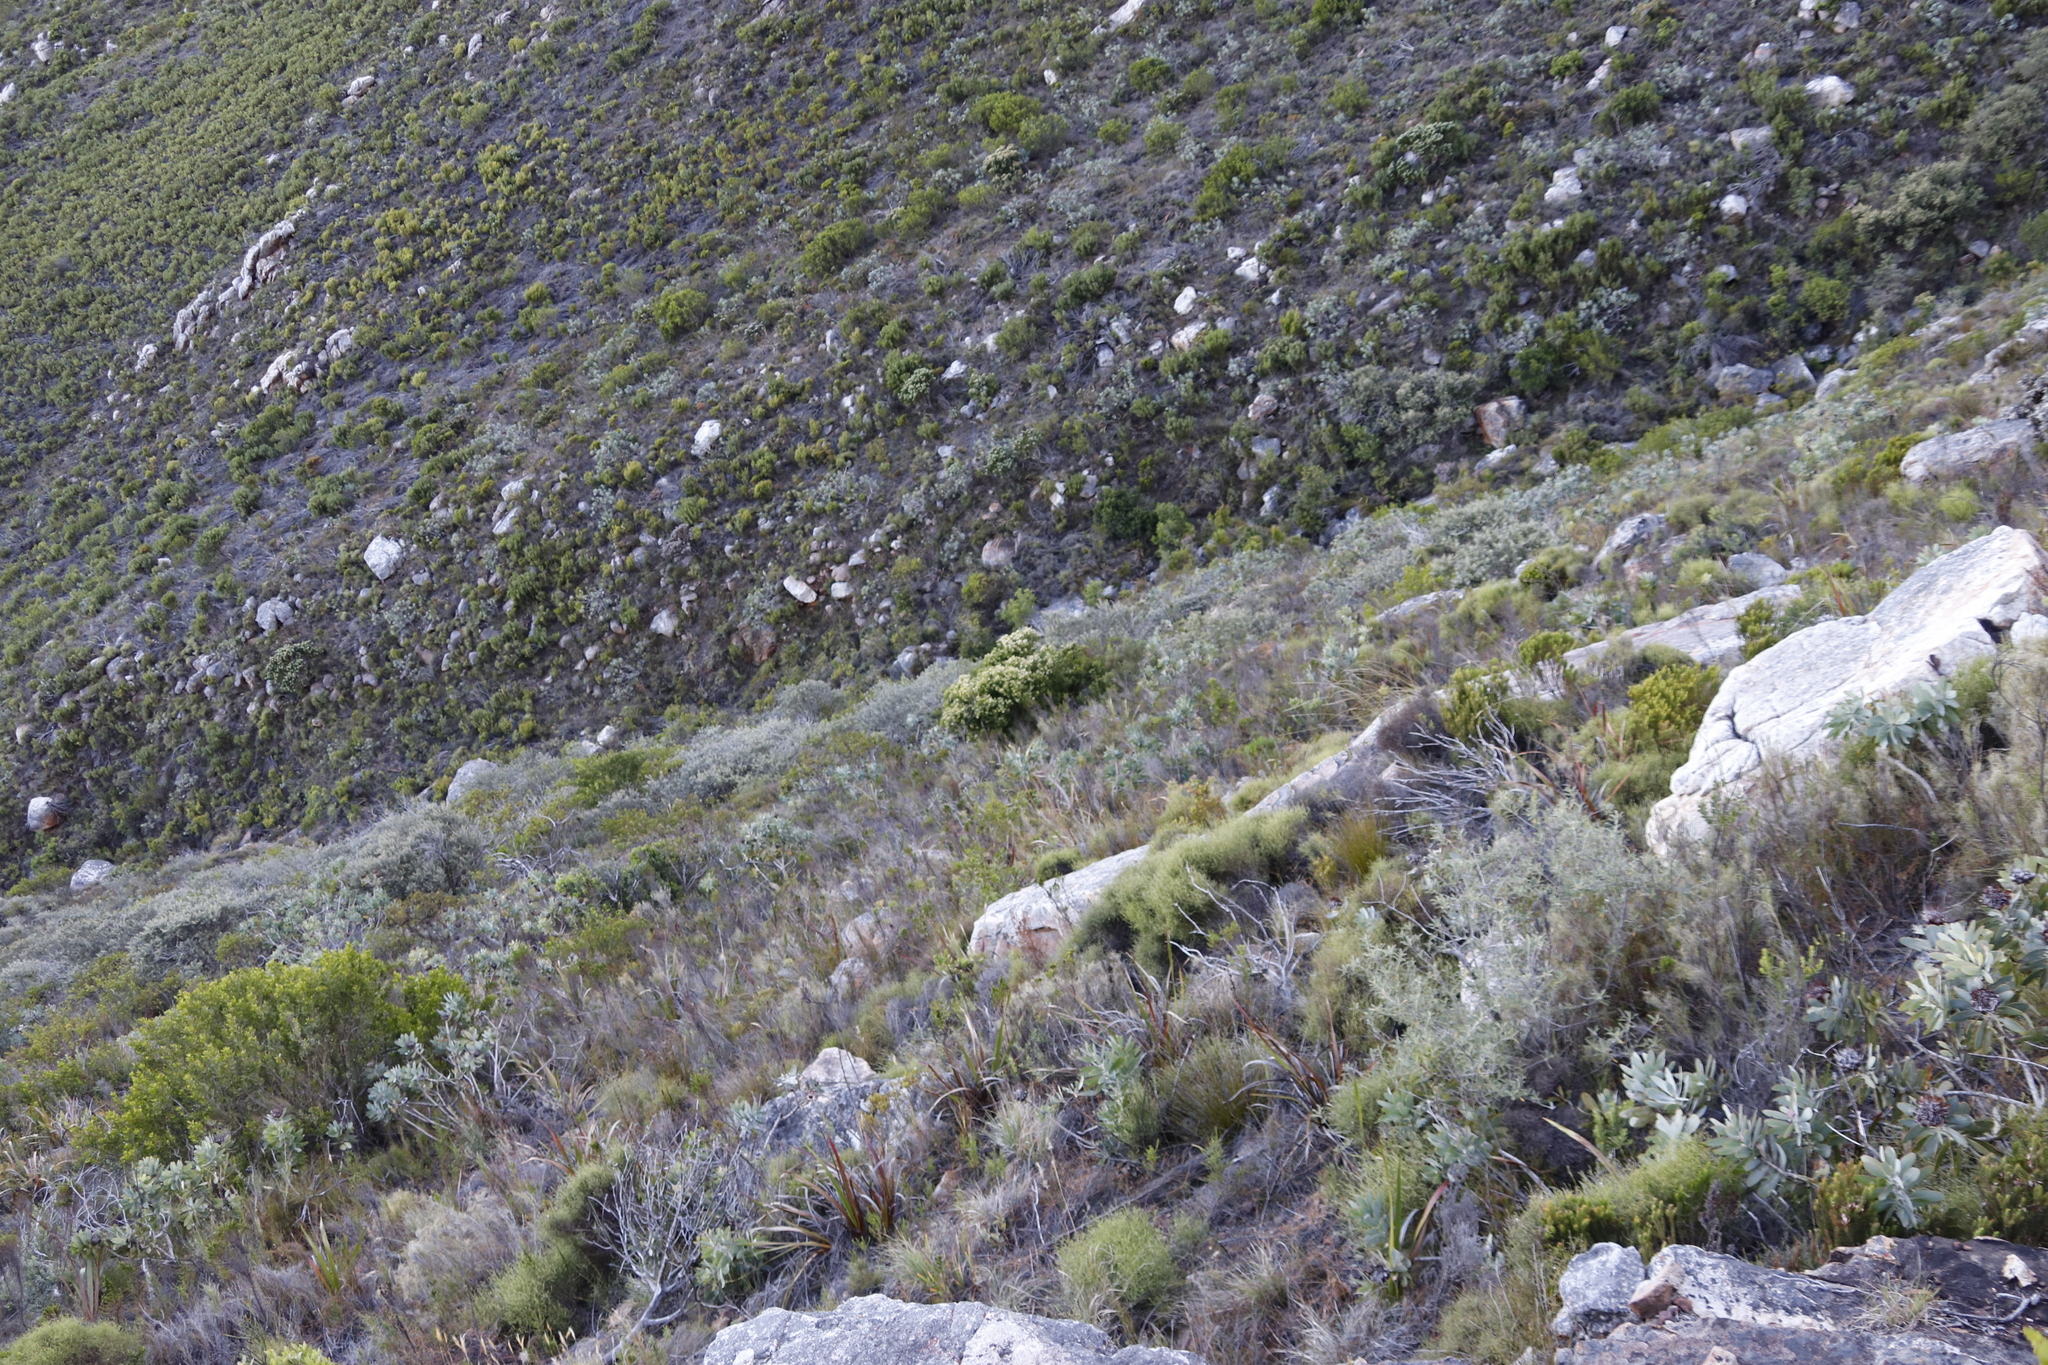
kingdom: Plantae
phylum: Tracheophyta
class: Magnoliopsida
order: Rosales
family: Rhamnaceae
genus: Phylica
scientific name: Phylica buxifolia
